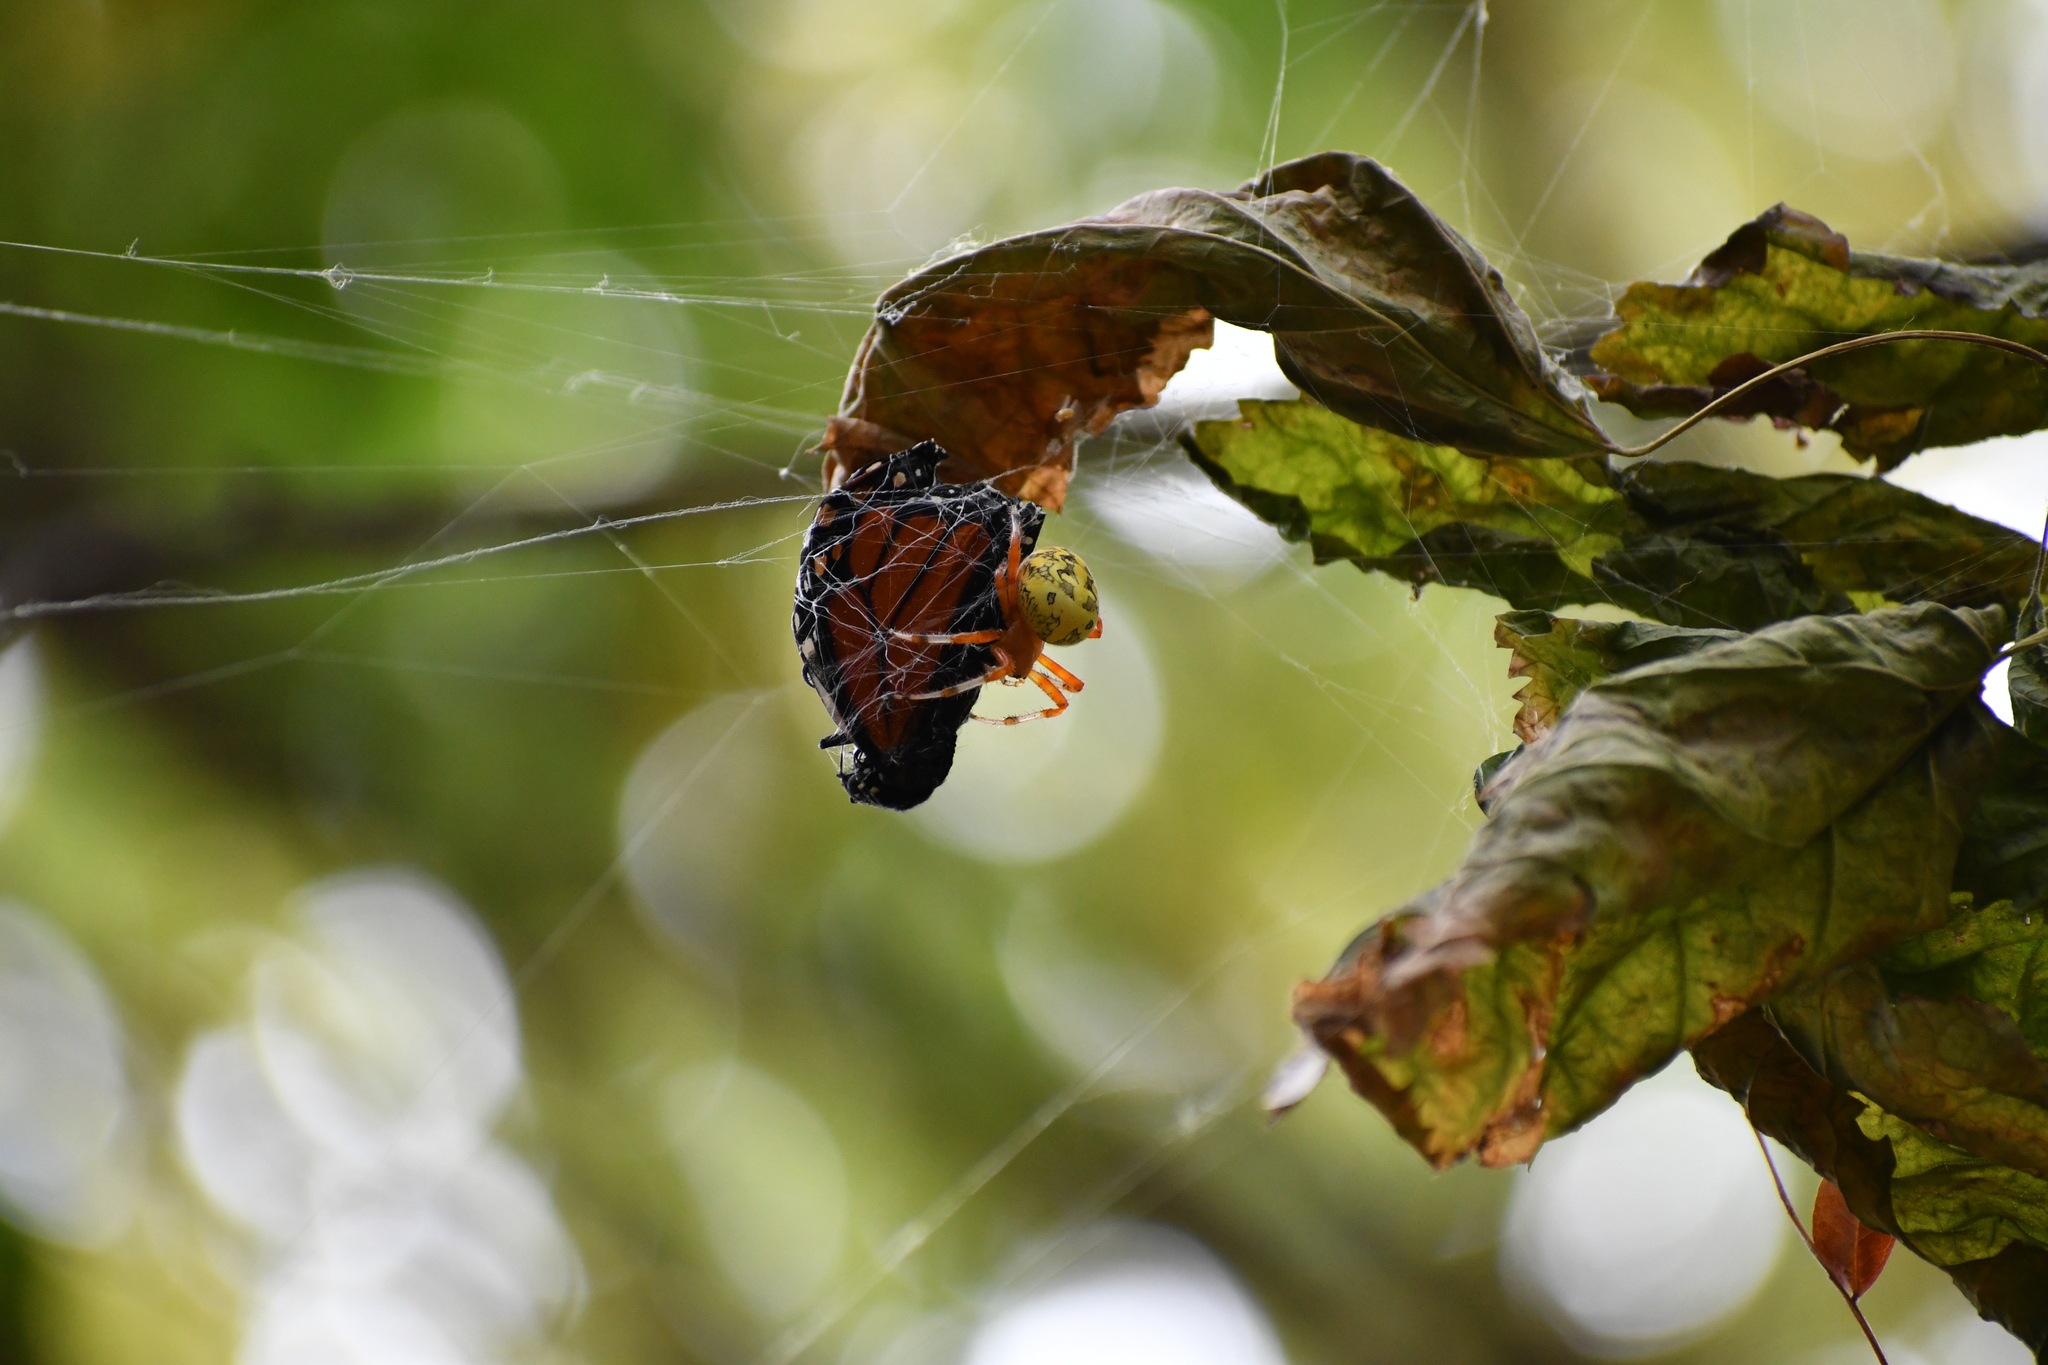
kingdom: Animalia
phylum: Arthropoda
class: Arachnida
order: Araneae
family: Araneidae
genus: Araneus
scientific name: Araneus marmoreus
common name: Marbled orbweaver
